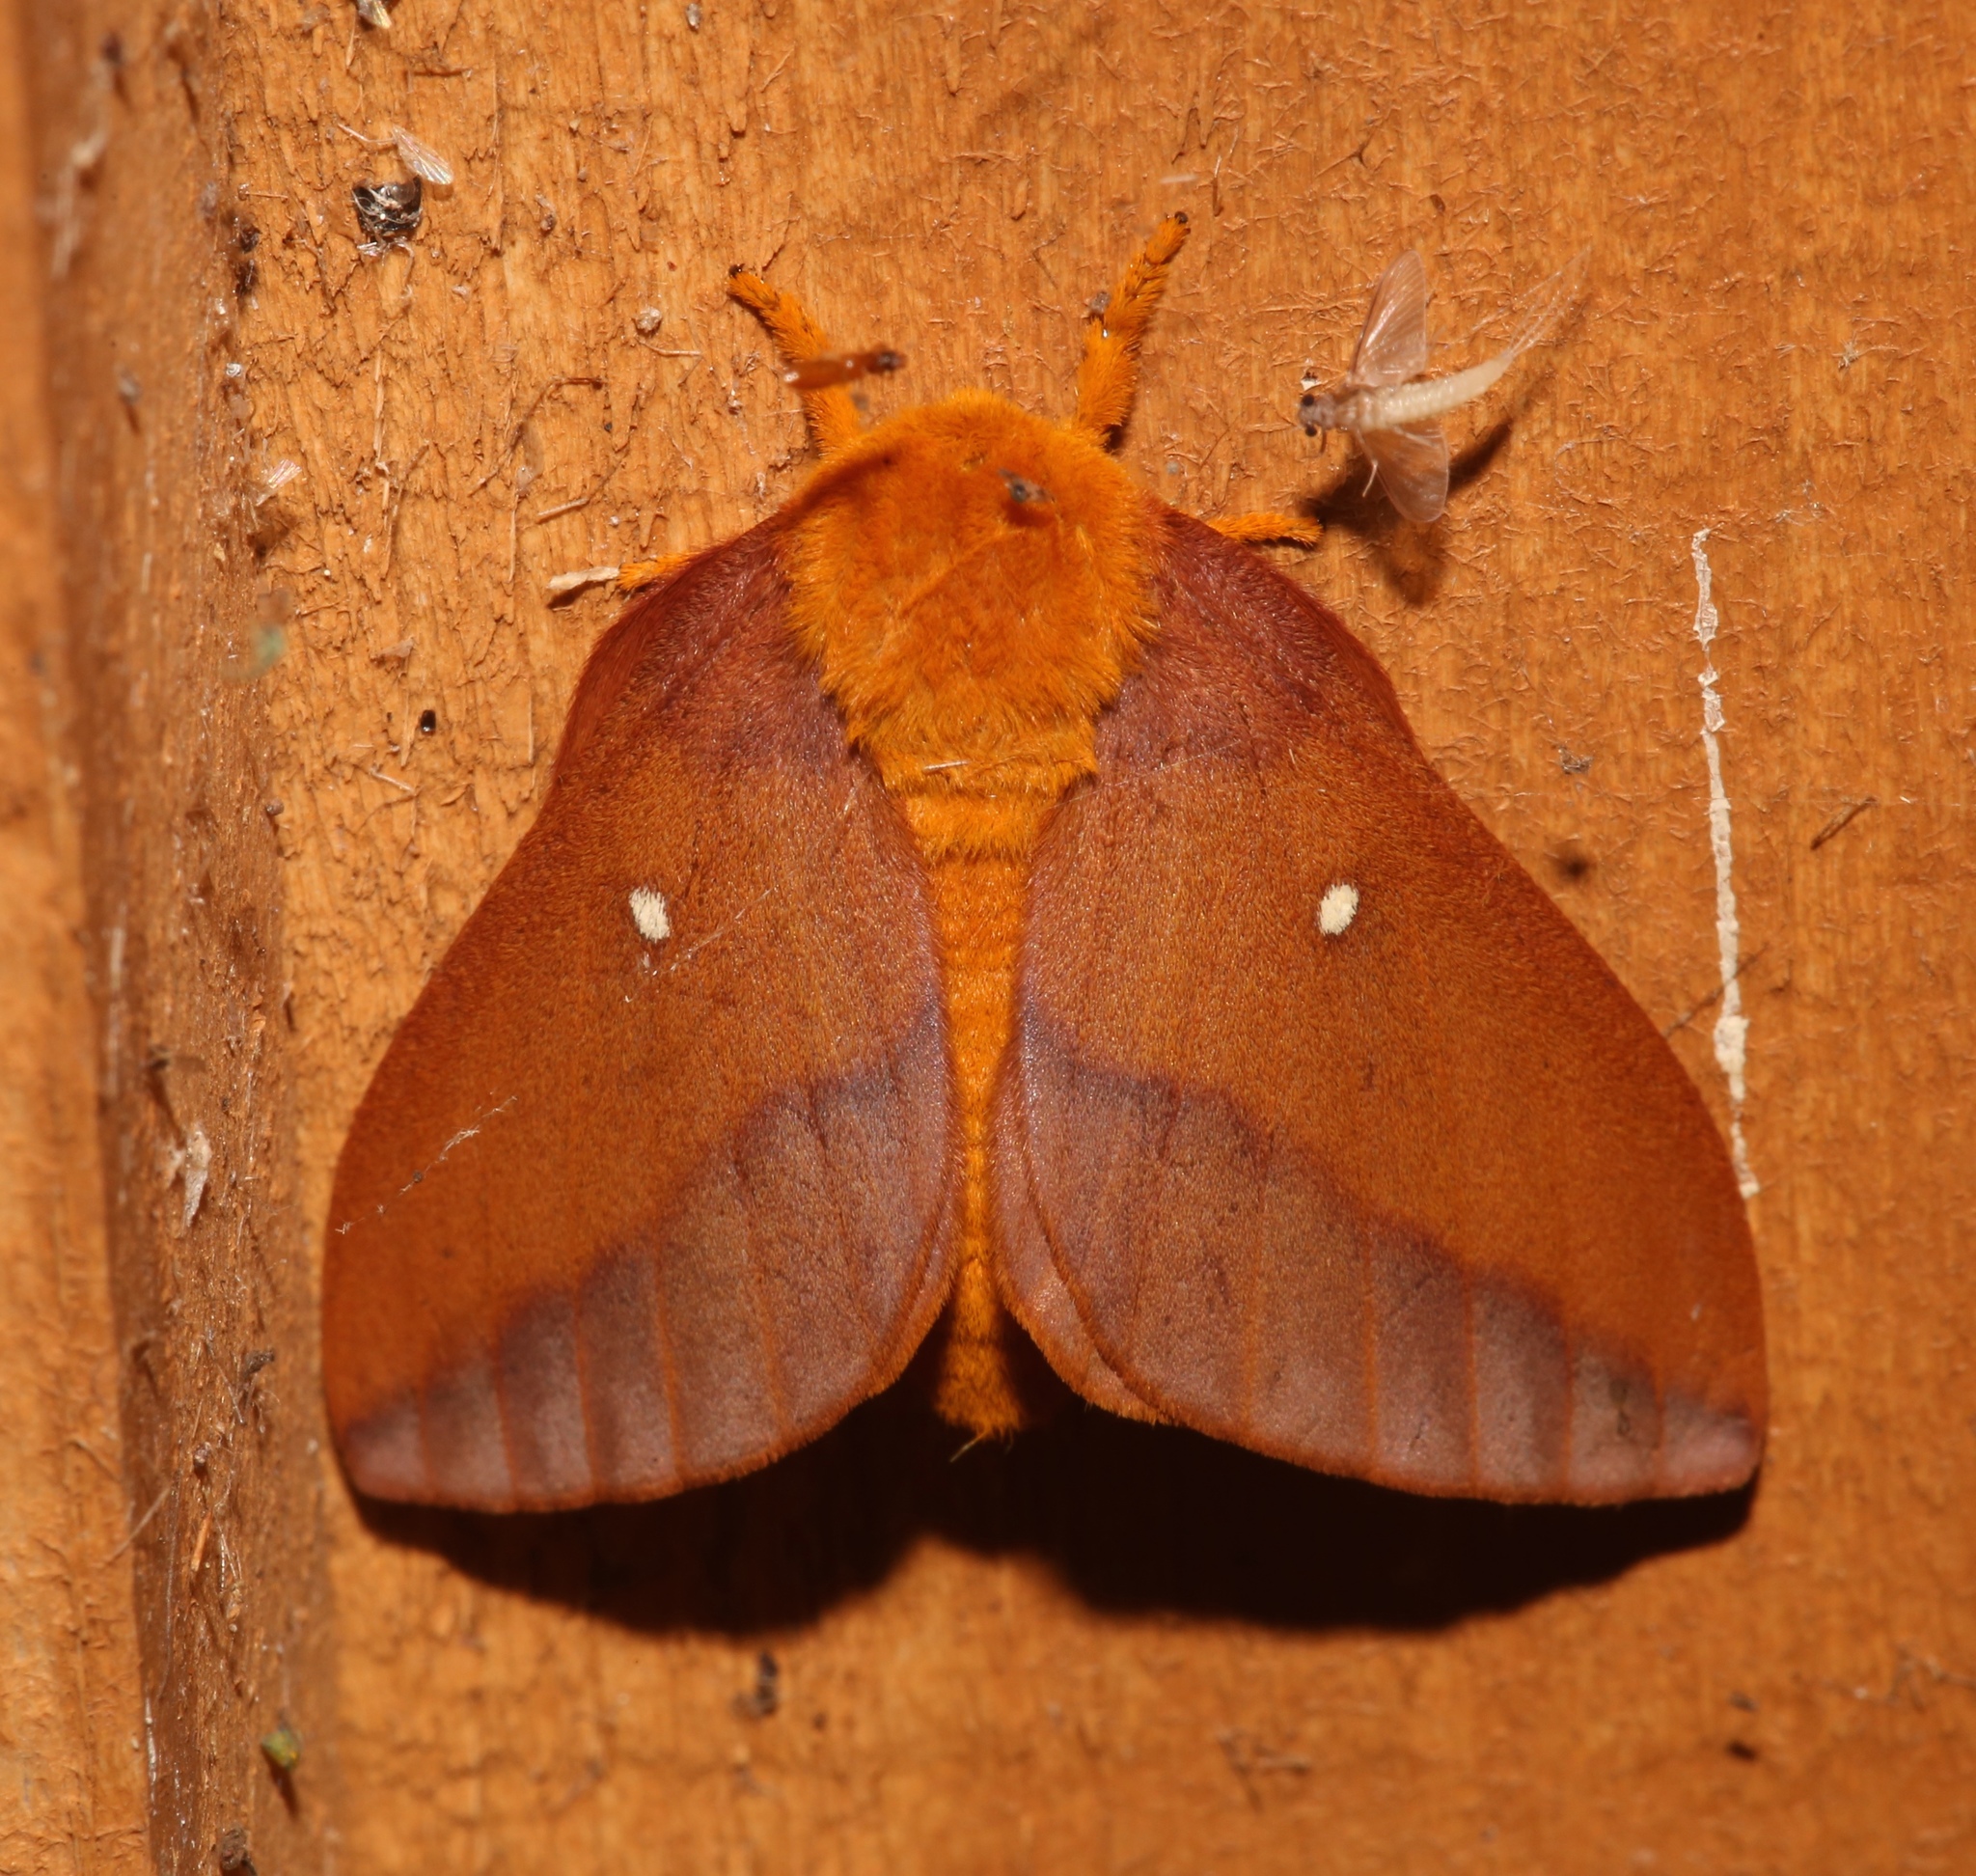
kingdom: Animalia
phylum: Arthropoda
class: Insecta
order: Lepidoptera
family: Saturniidae
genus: Anisota
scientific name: Anisota virginiensis
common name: Pink striped oakworm moth
